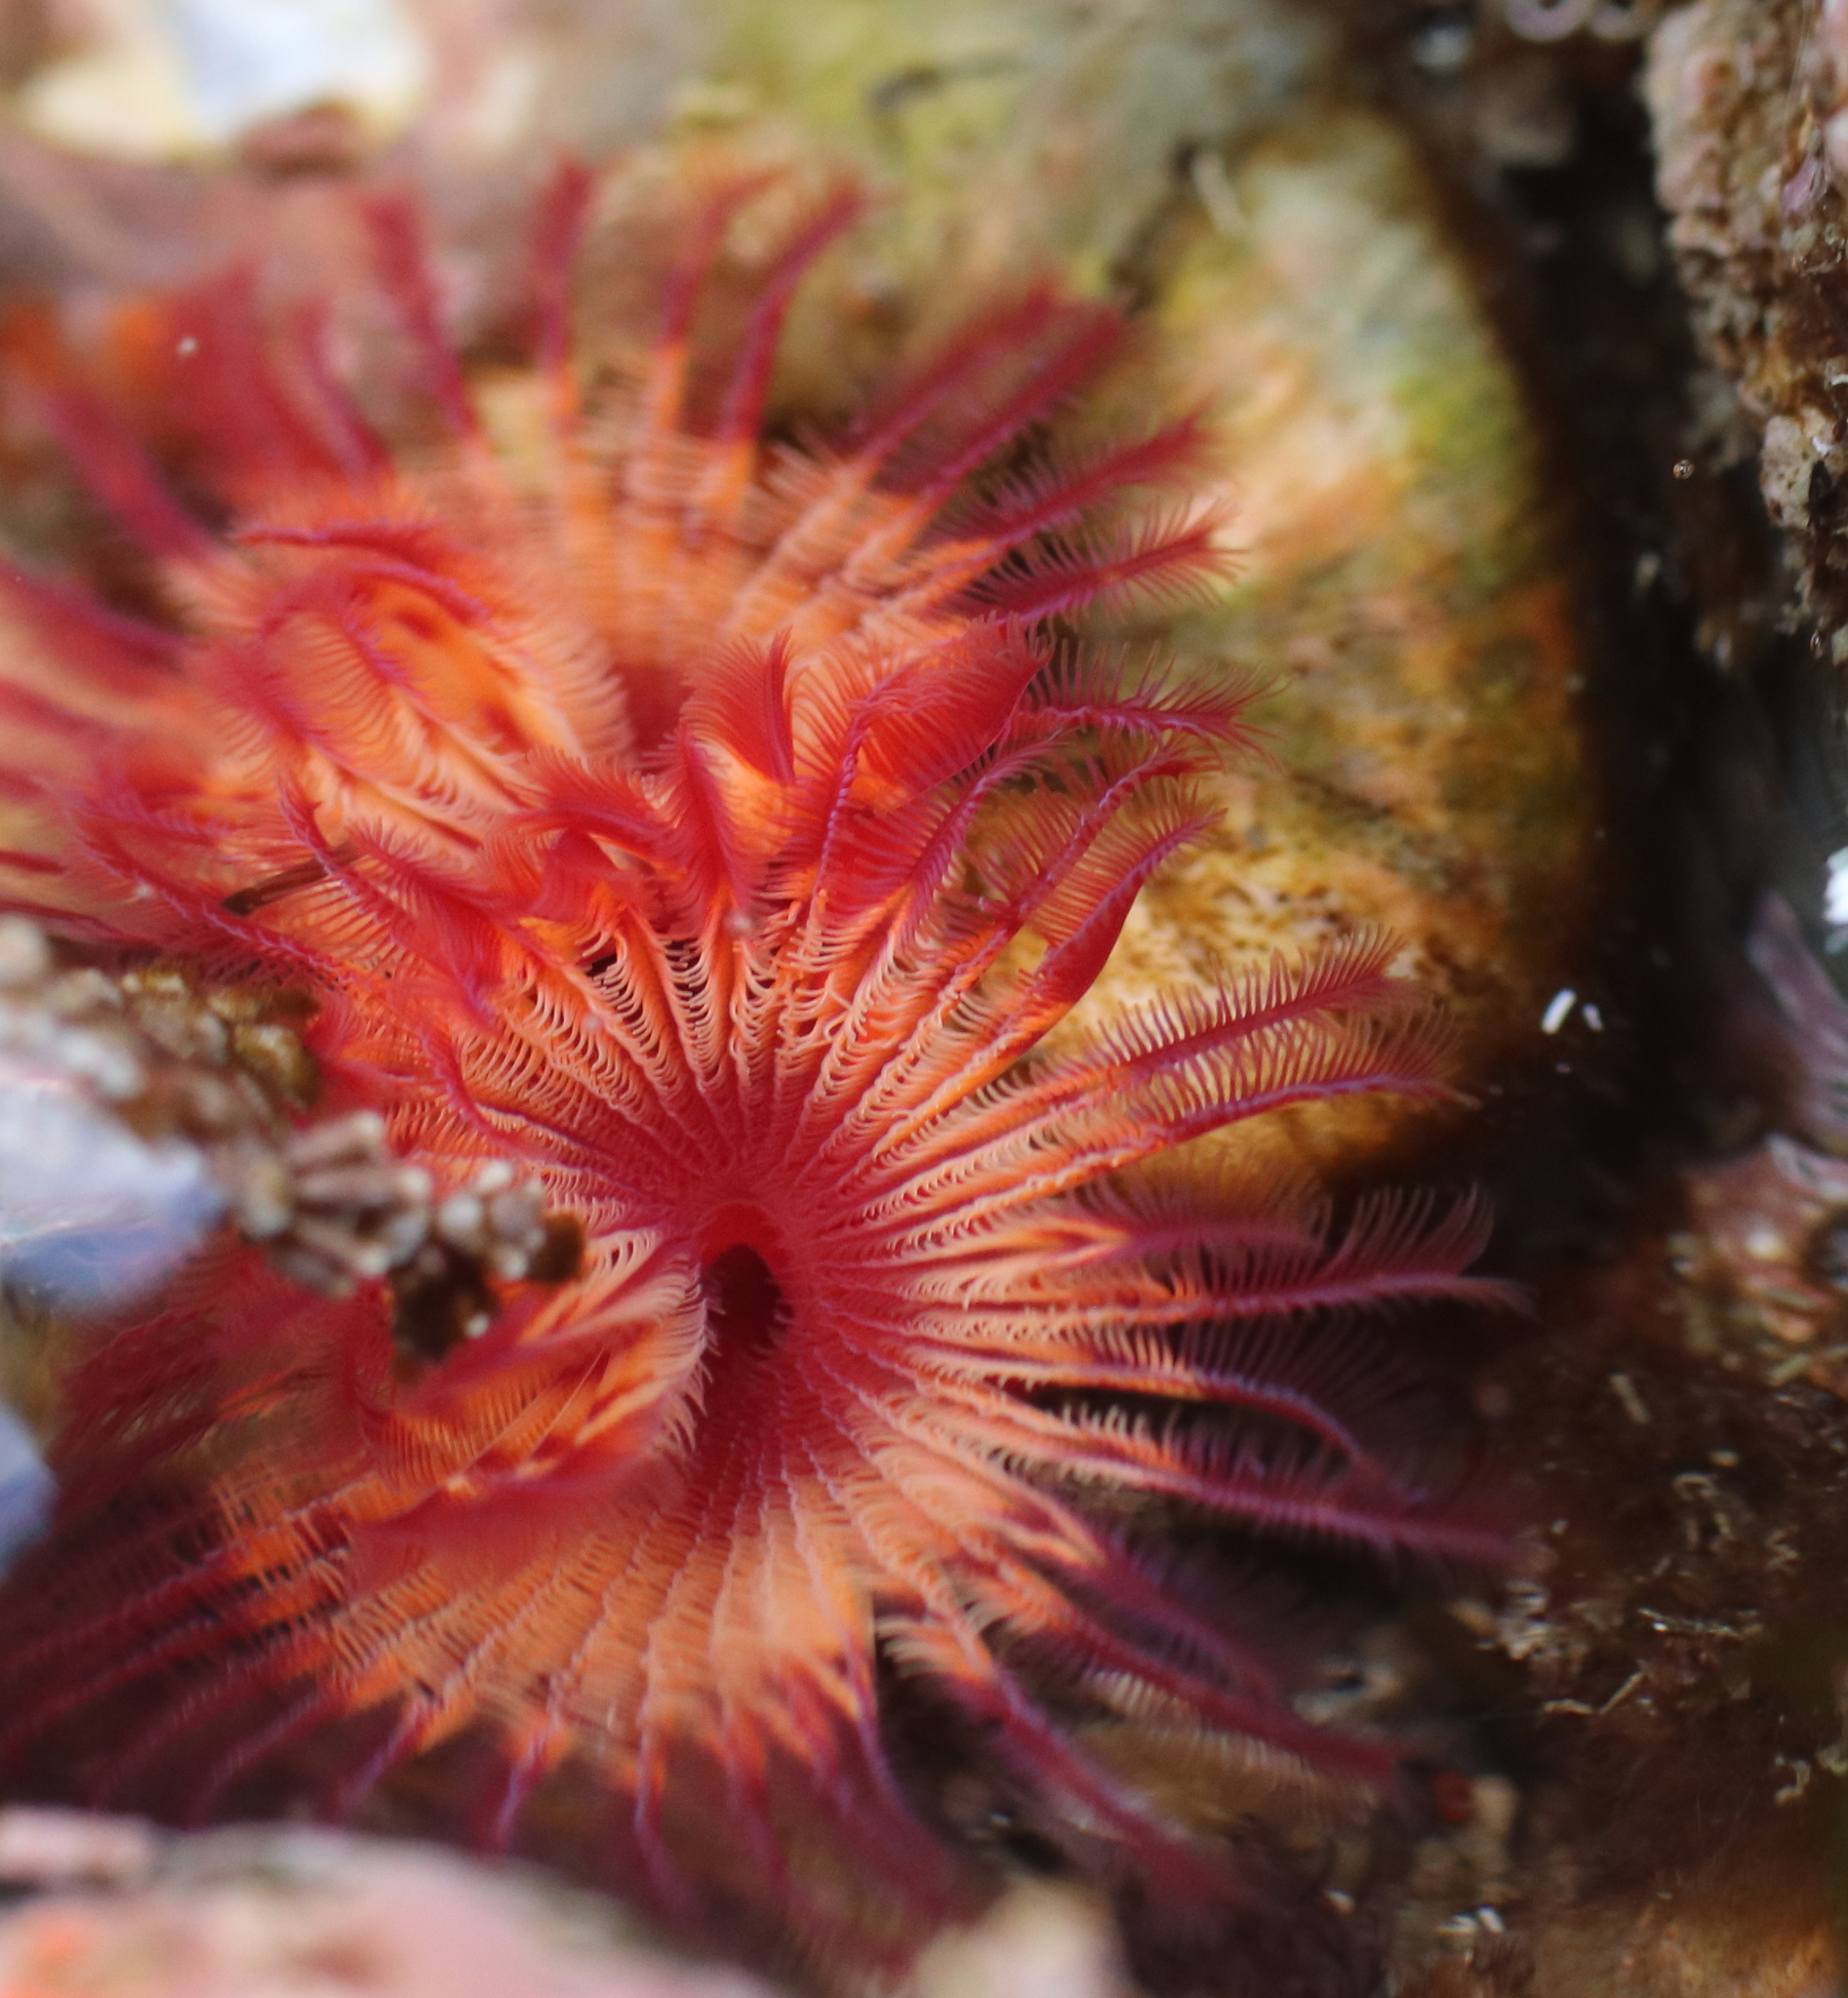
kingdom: Animalia
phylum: Annelida
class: Polychaeta
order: Sabellida
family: Serpulidae
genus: Serpula
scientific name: Serpula columbiana
